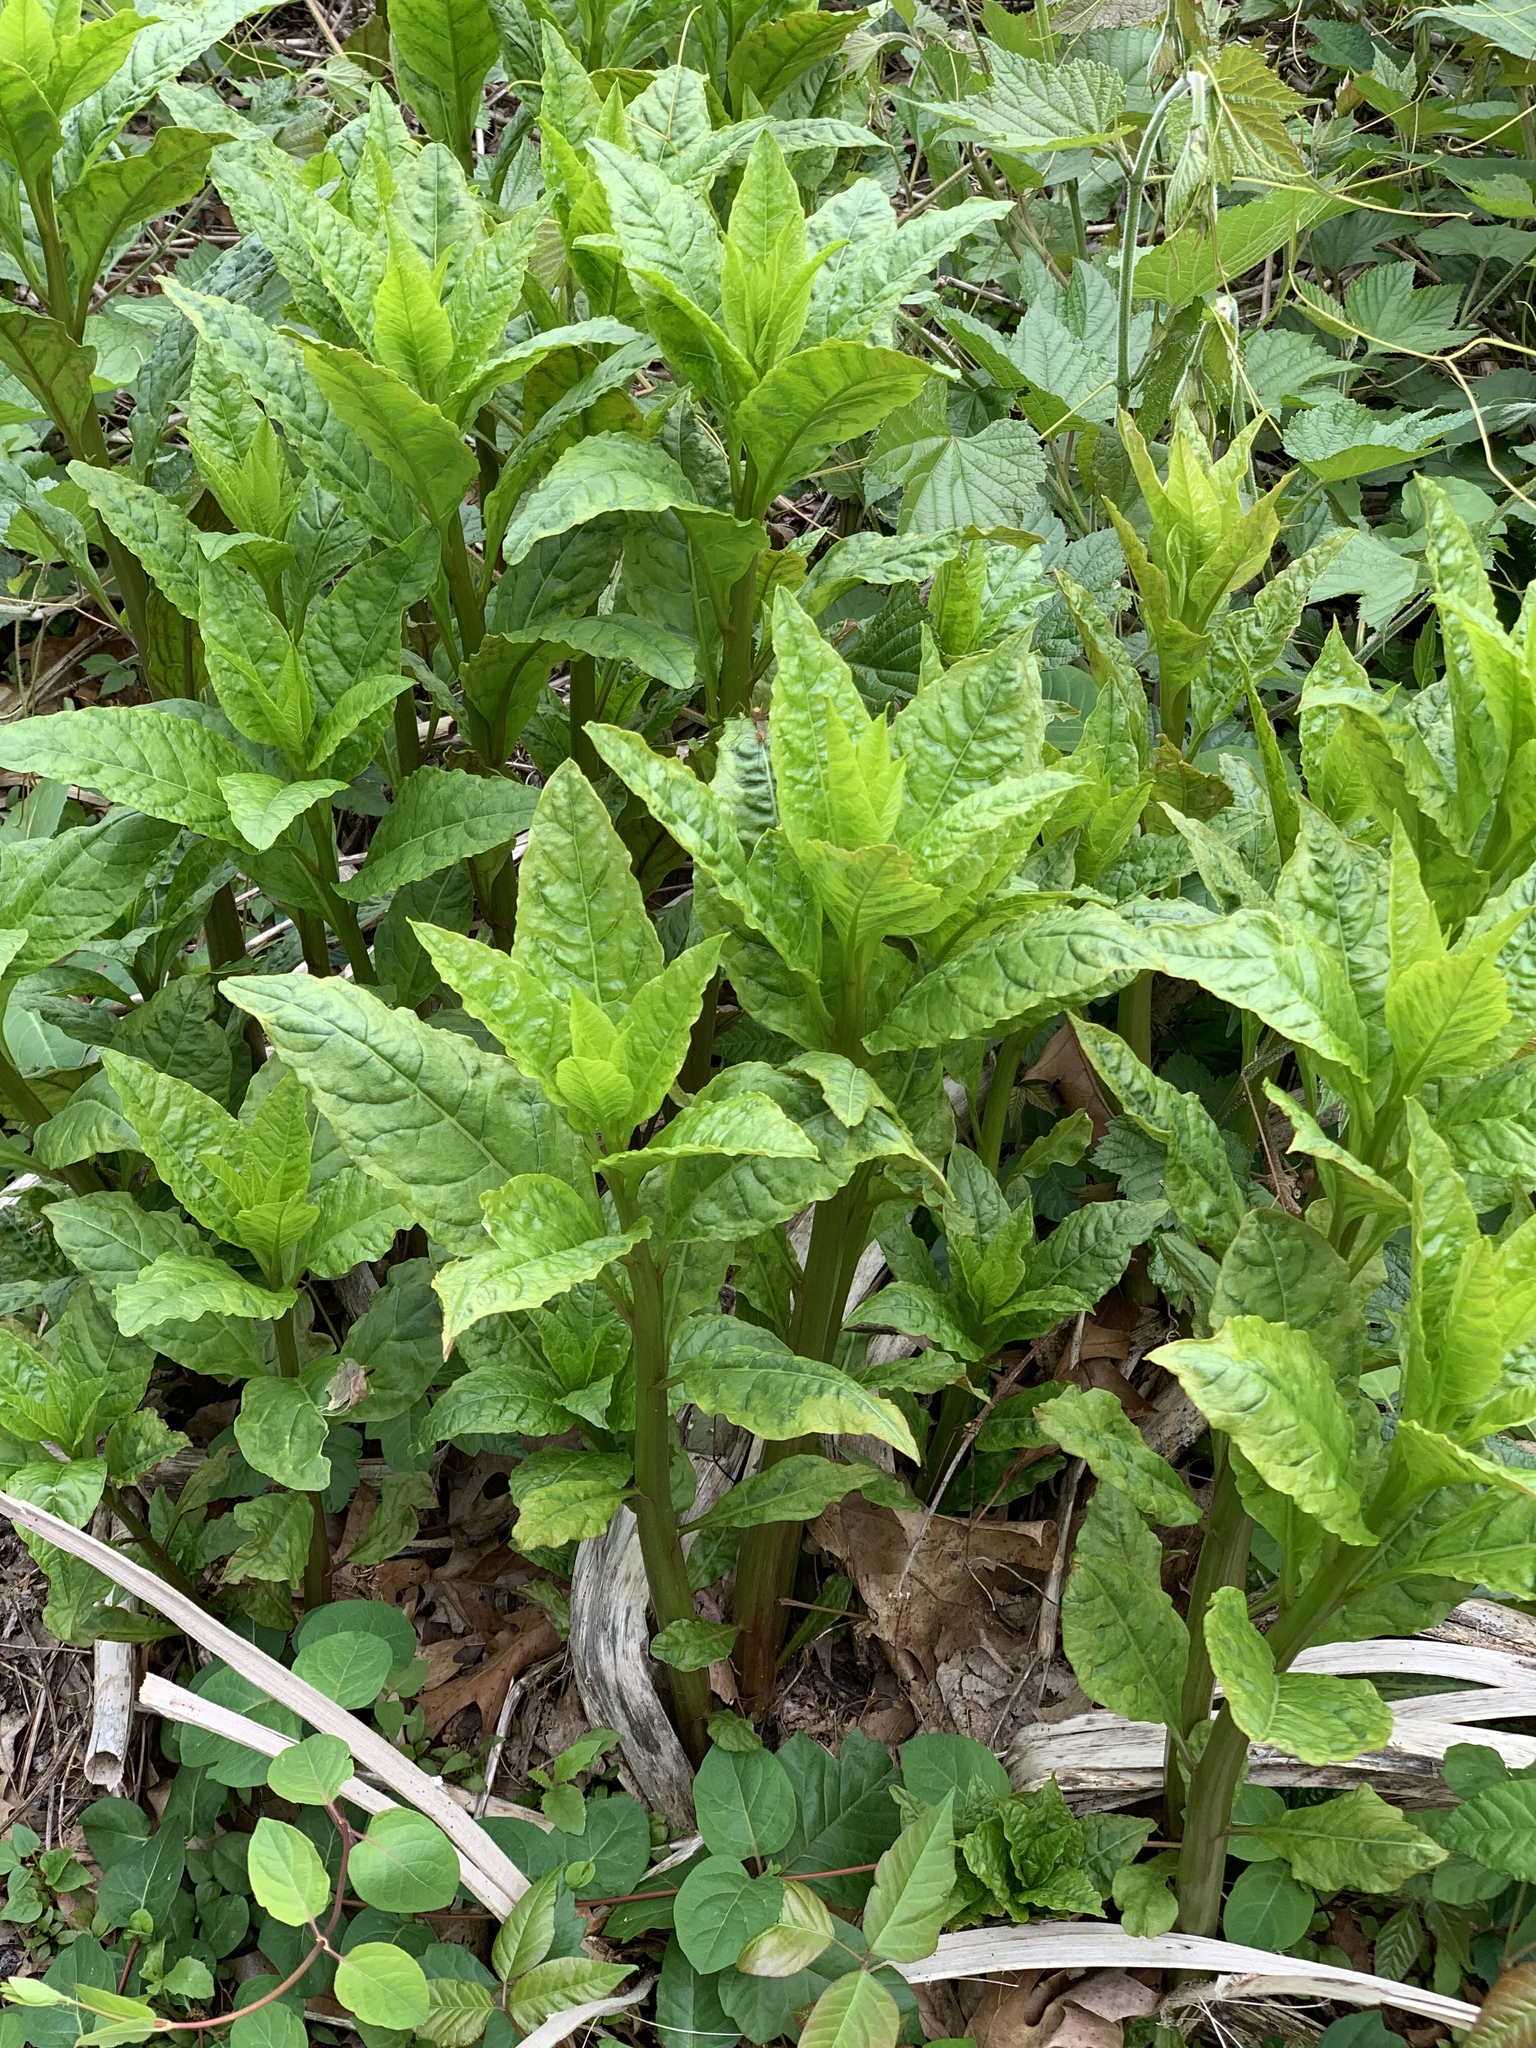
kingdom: Plantae
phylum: Tracheophyta
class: Magnoliopsida
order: Caryophyllales
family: Phytolaccaceae
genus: Phytolacca
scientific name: Phytolacca americana
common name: American pokeweed
